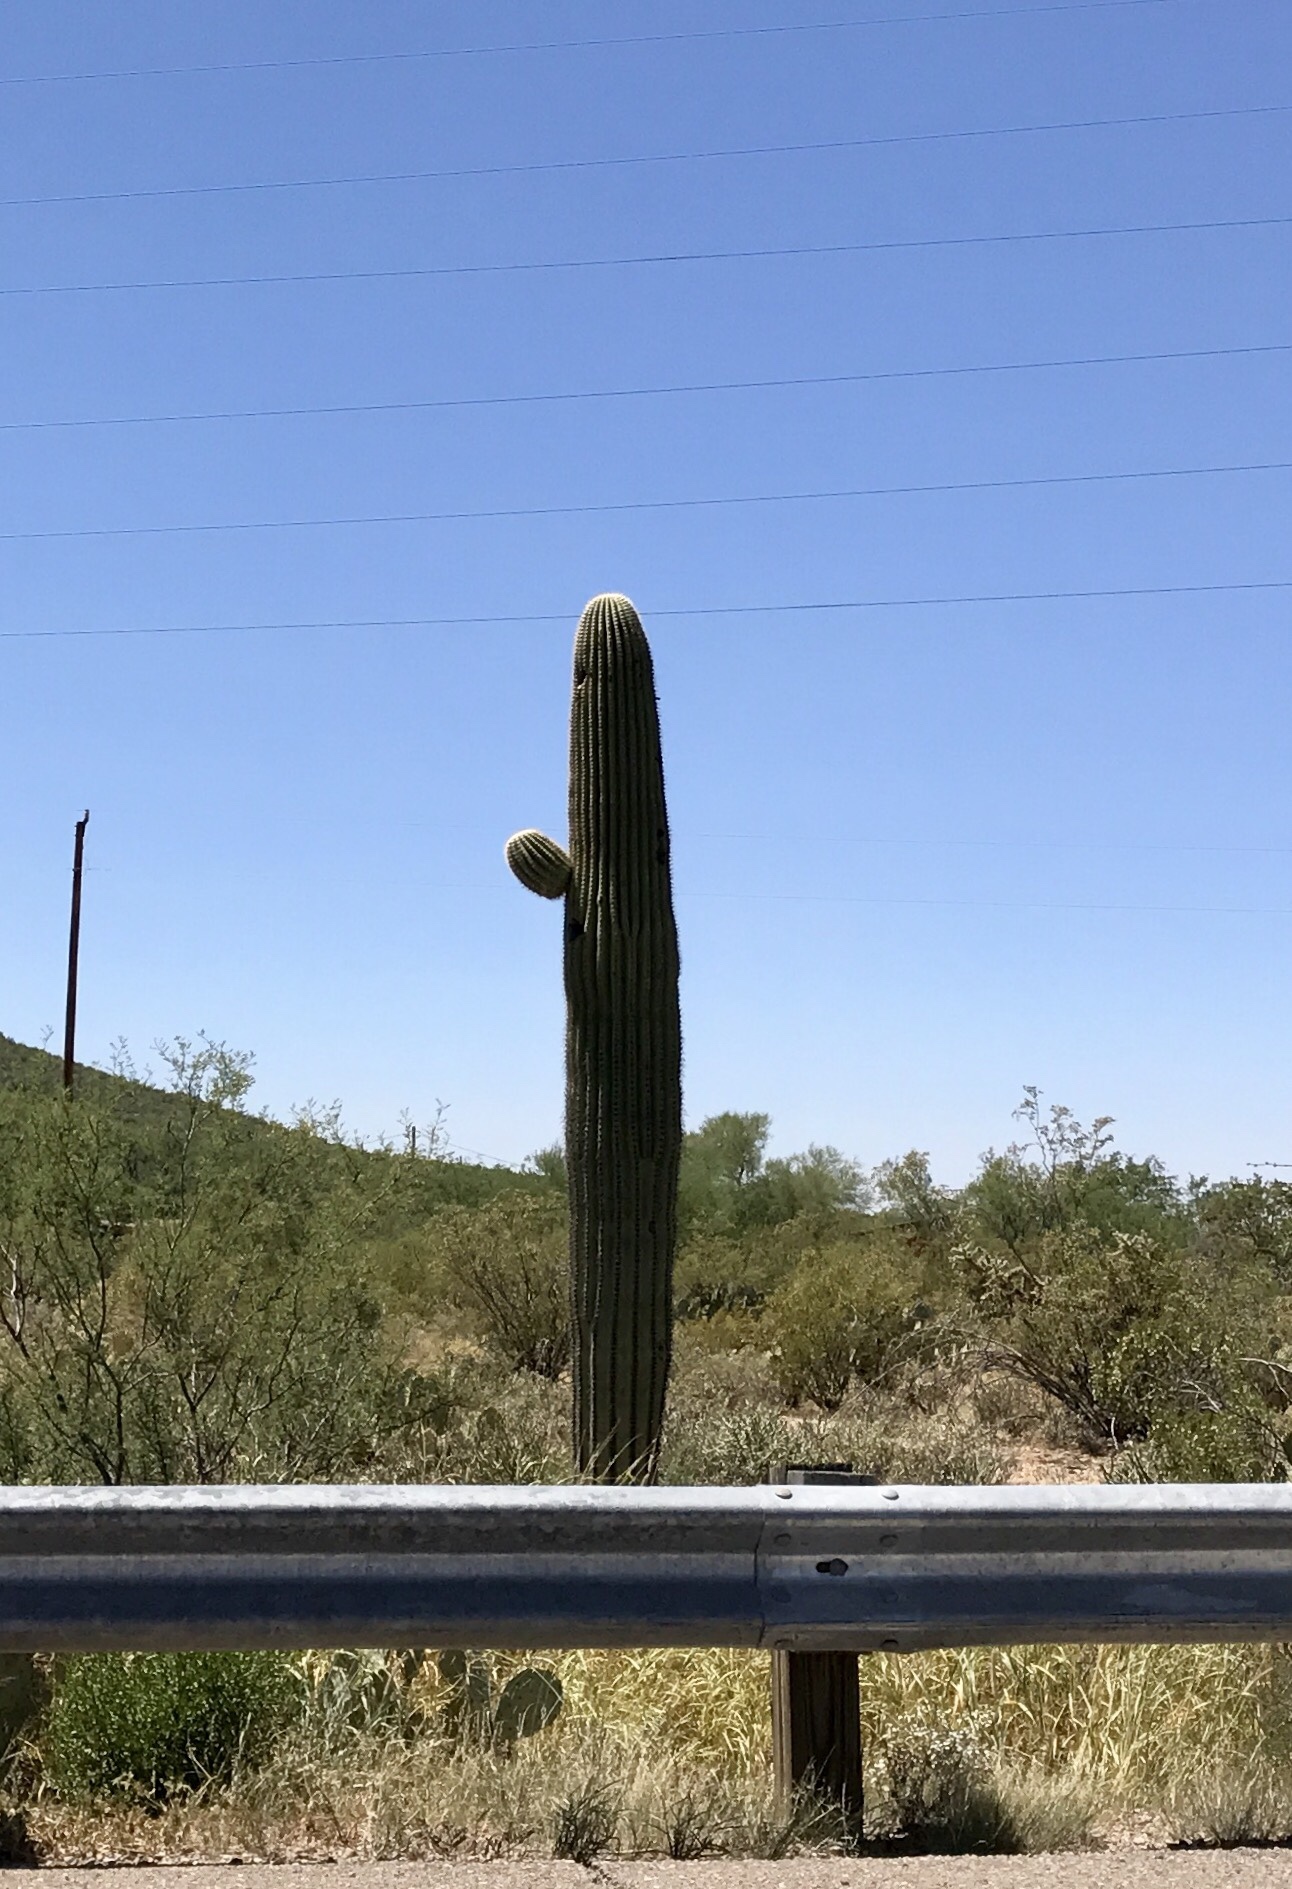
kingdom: Plantae
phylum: Tracheophyta
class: Magnoliopsida
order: Caryophyllales
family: Cactaceae
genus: Carnegiea
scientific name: Carnegiea gigantea
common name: Saguaro
